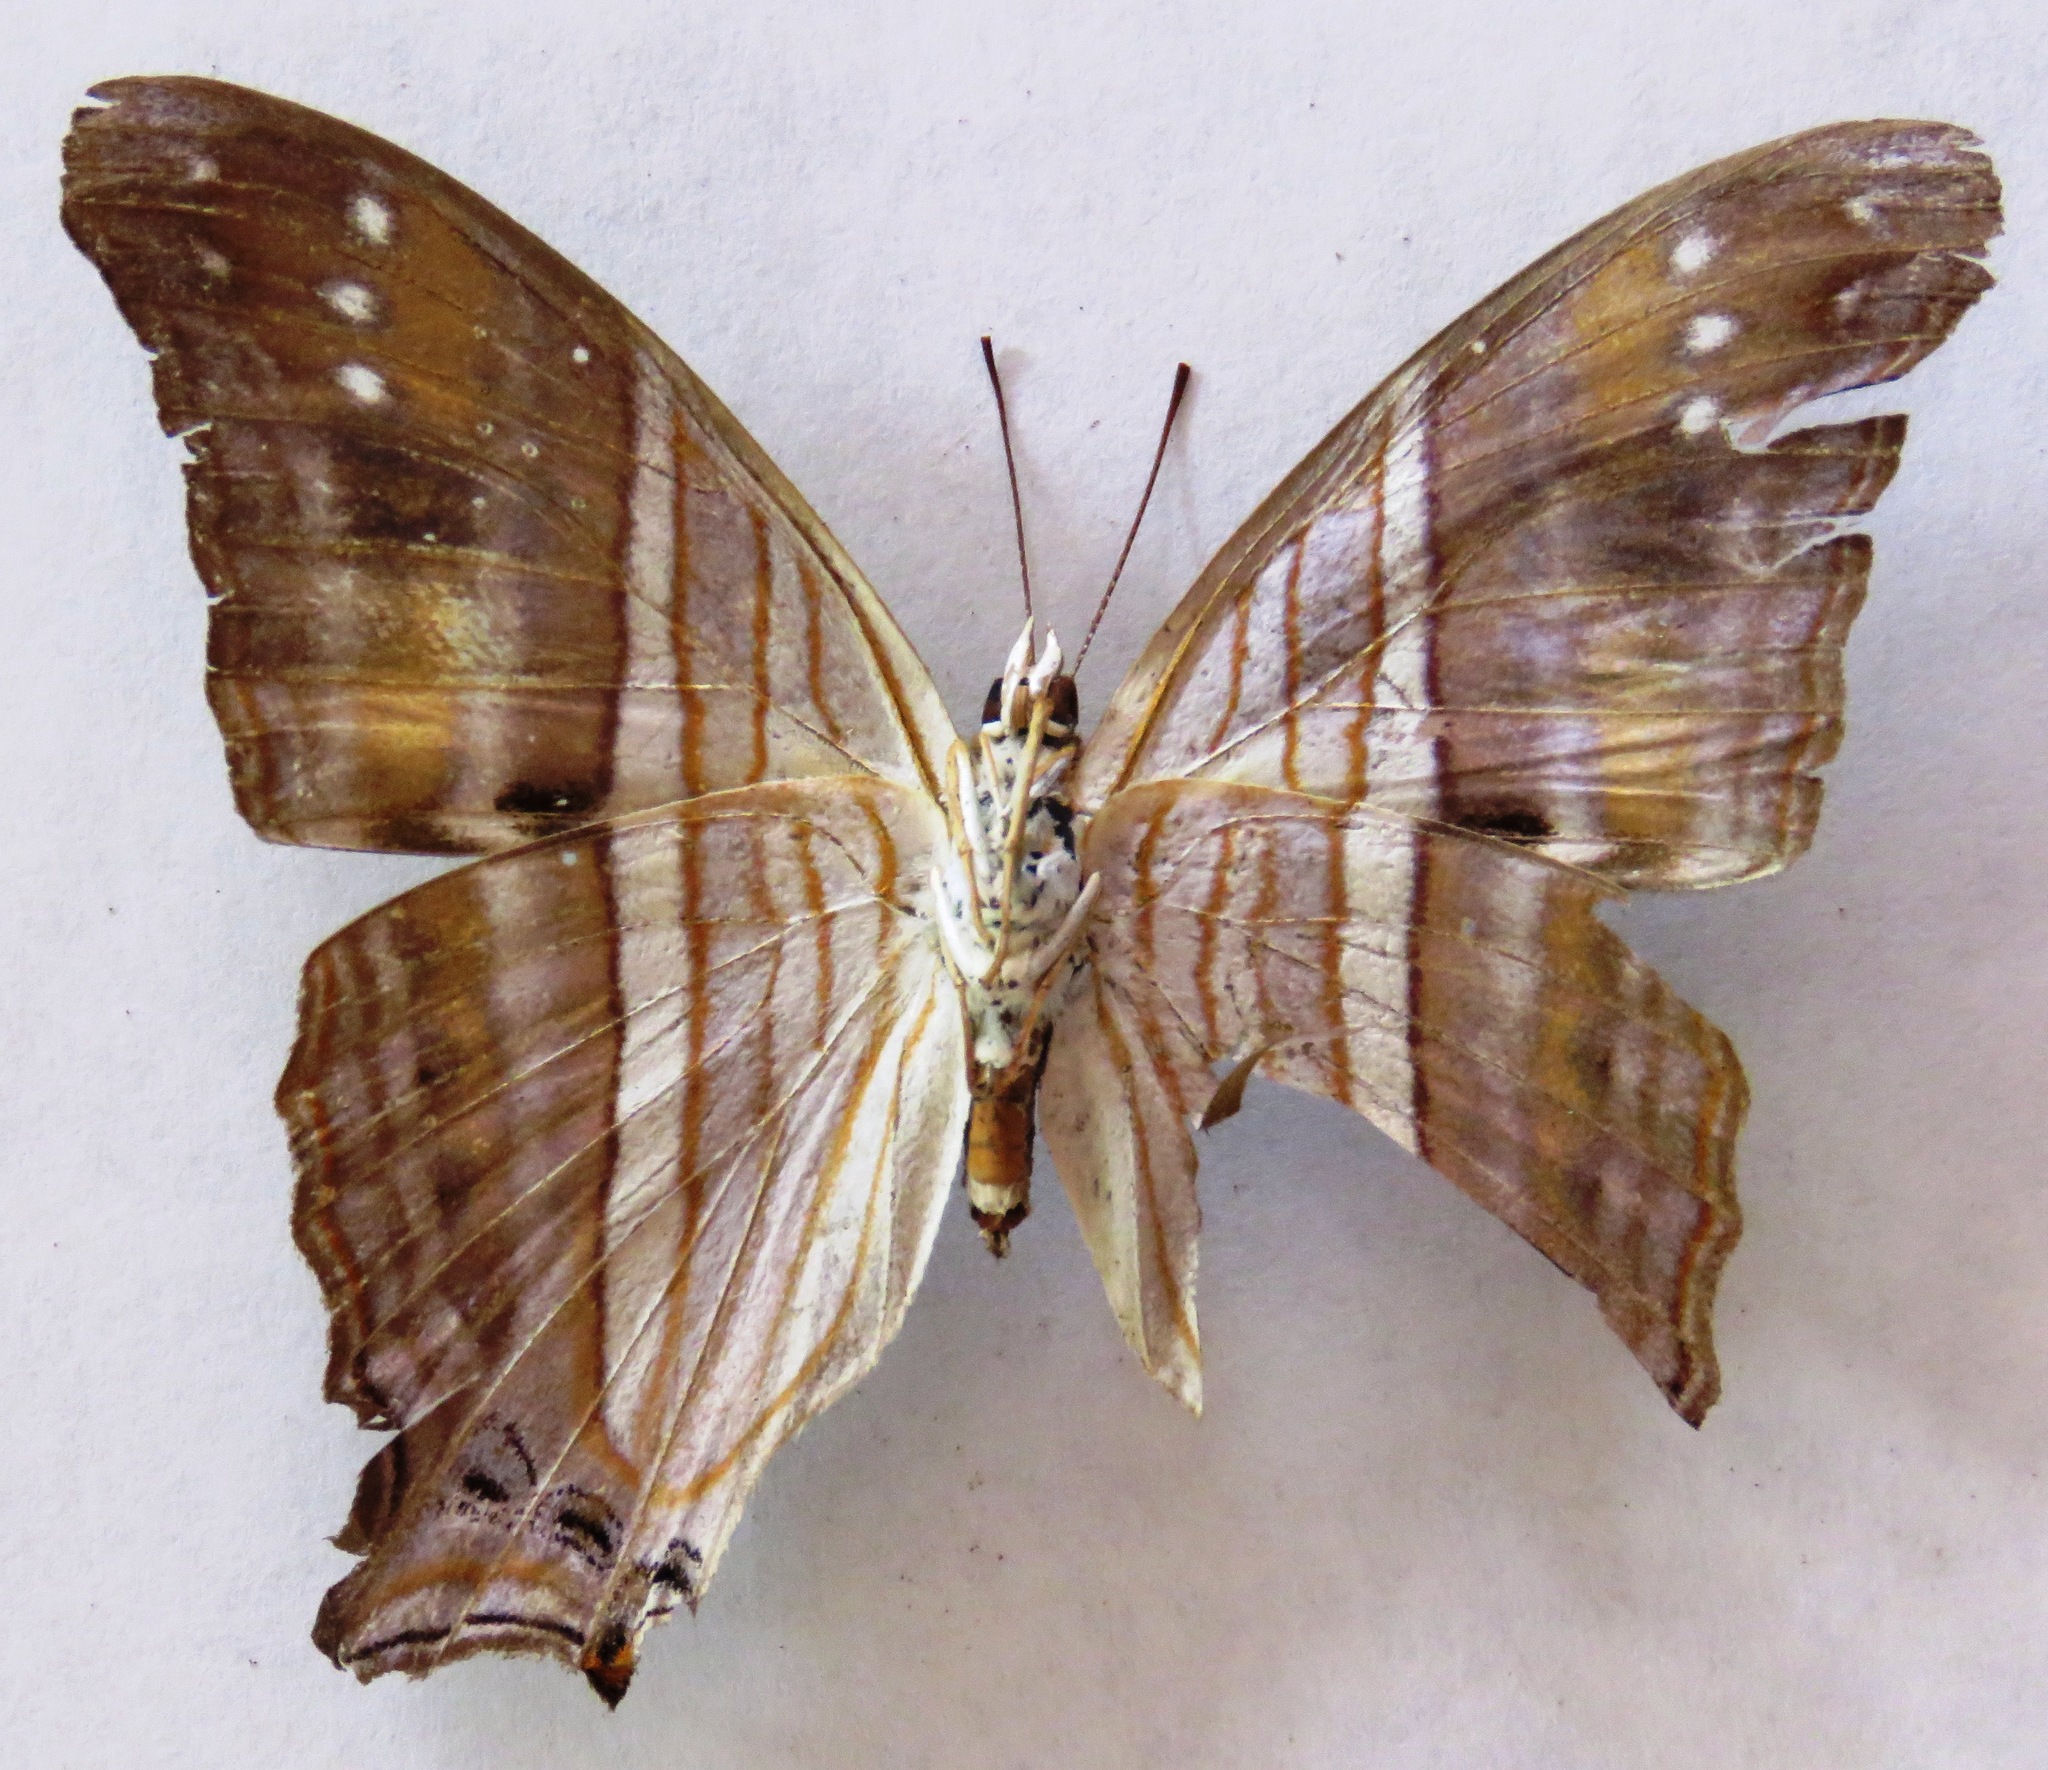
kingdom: Animalia
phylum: Arthropoda
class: Insecta
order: Lepidoptera
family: Nymphalidae
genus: Marpesia
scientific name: Marpesia chiron
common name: Many-banded daggerwing
